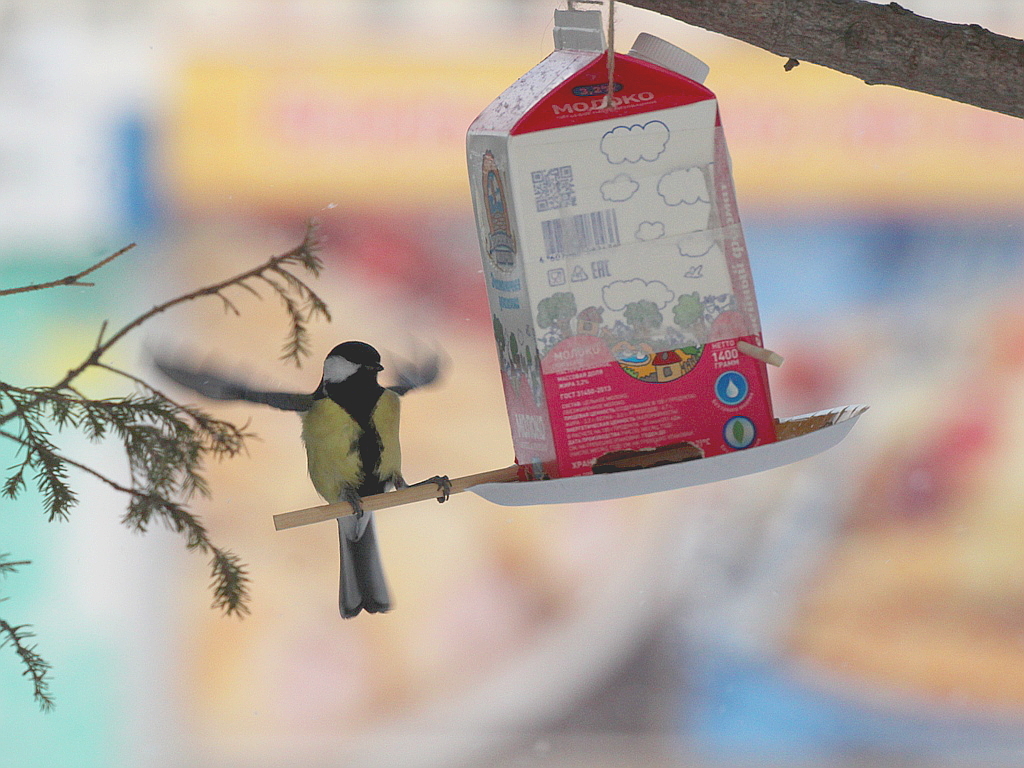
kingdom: Animalia
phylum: Chordata
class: Aves
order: Passeriformes
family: Paridae
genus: Parus
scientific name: Parus major
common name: Great tit
